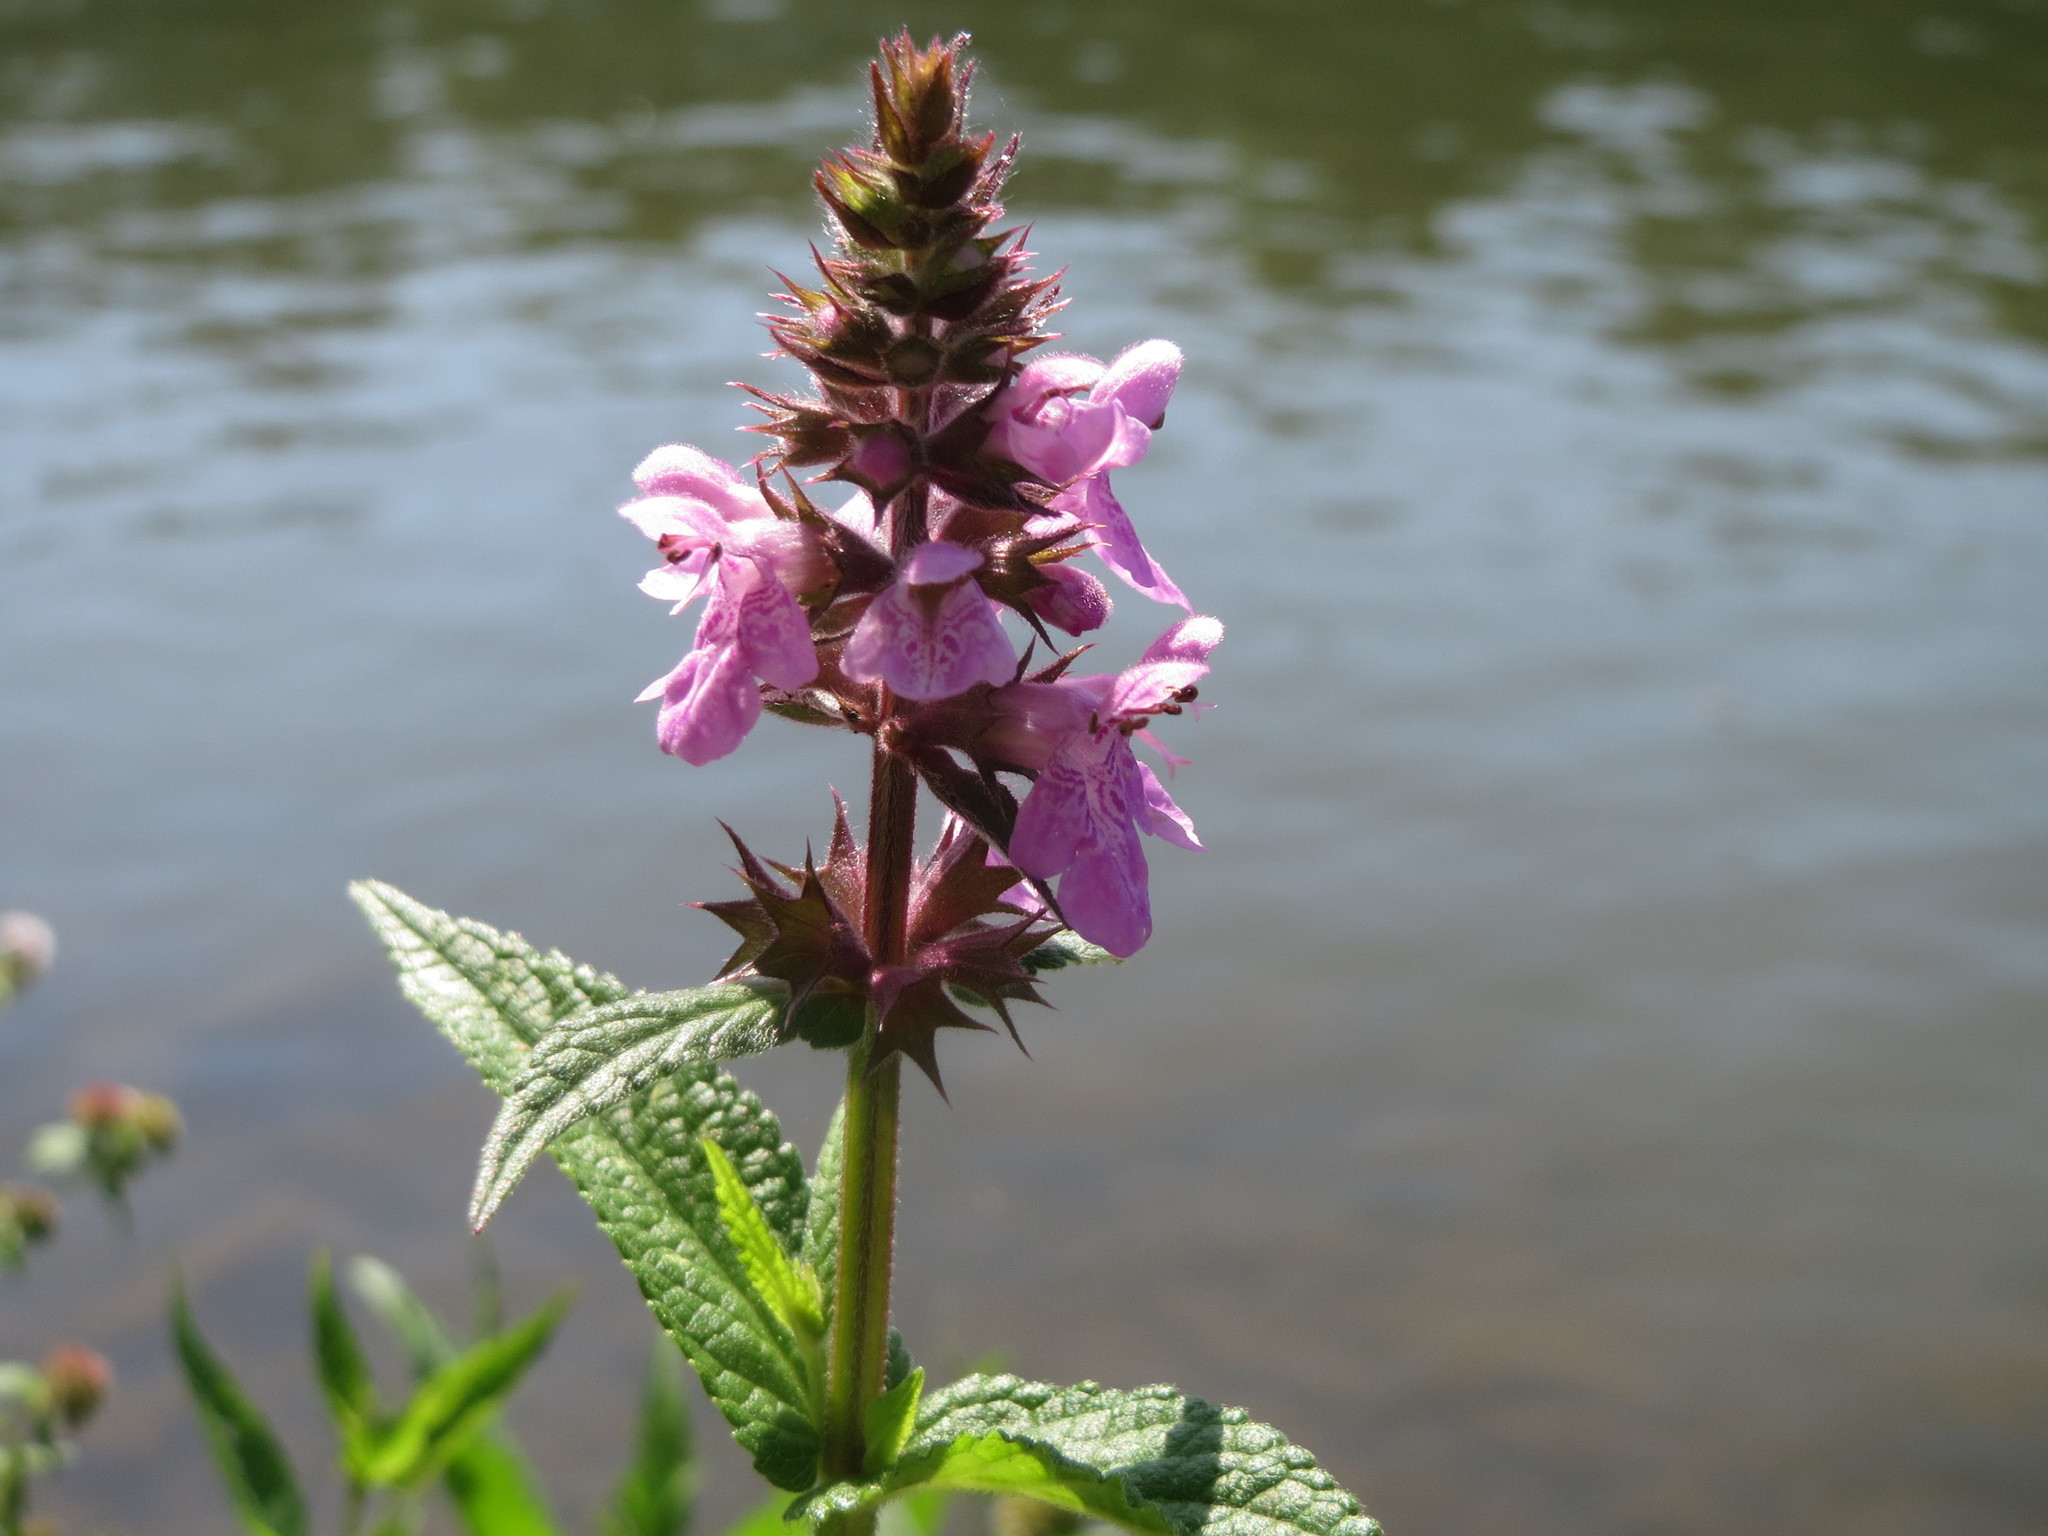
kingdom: Plantae
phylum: Tracheophyta
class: Magnoliopsida
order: Lamiales
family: Lamiaceae
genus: Stachys
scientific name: Stachys palustris
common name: Marsh woundwort
